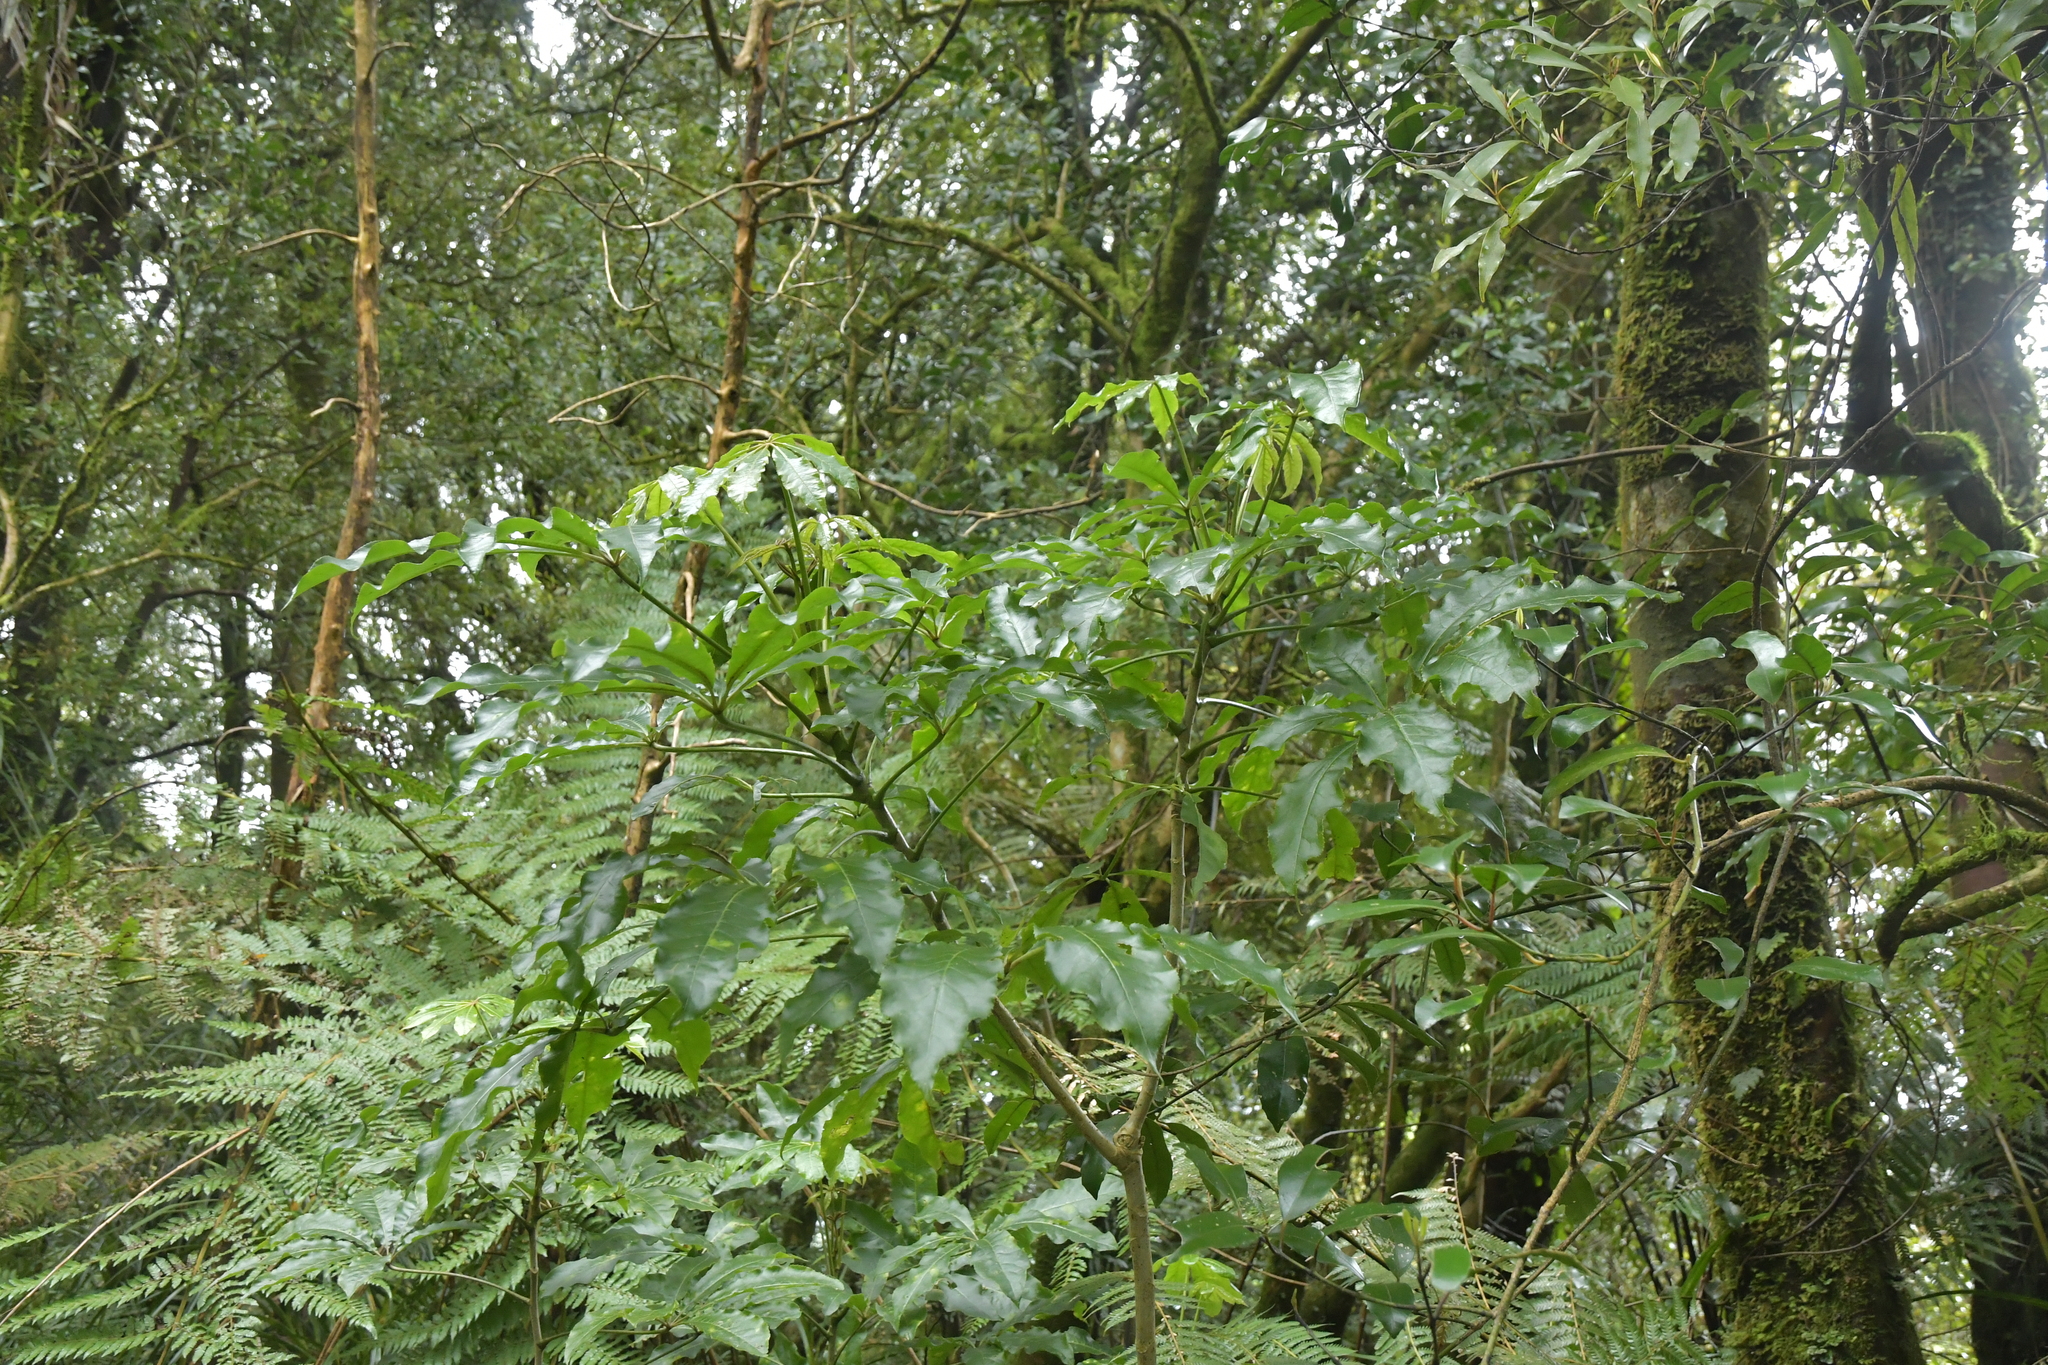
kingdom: Plantae
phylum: Tracheophyta
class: Magnoliopsida
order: Apiales
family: Araliaceae
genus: Schefflera
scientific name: Schefflera digitata
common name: Pate
